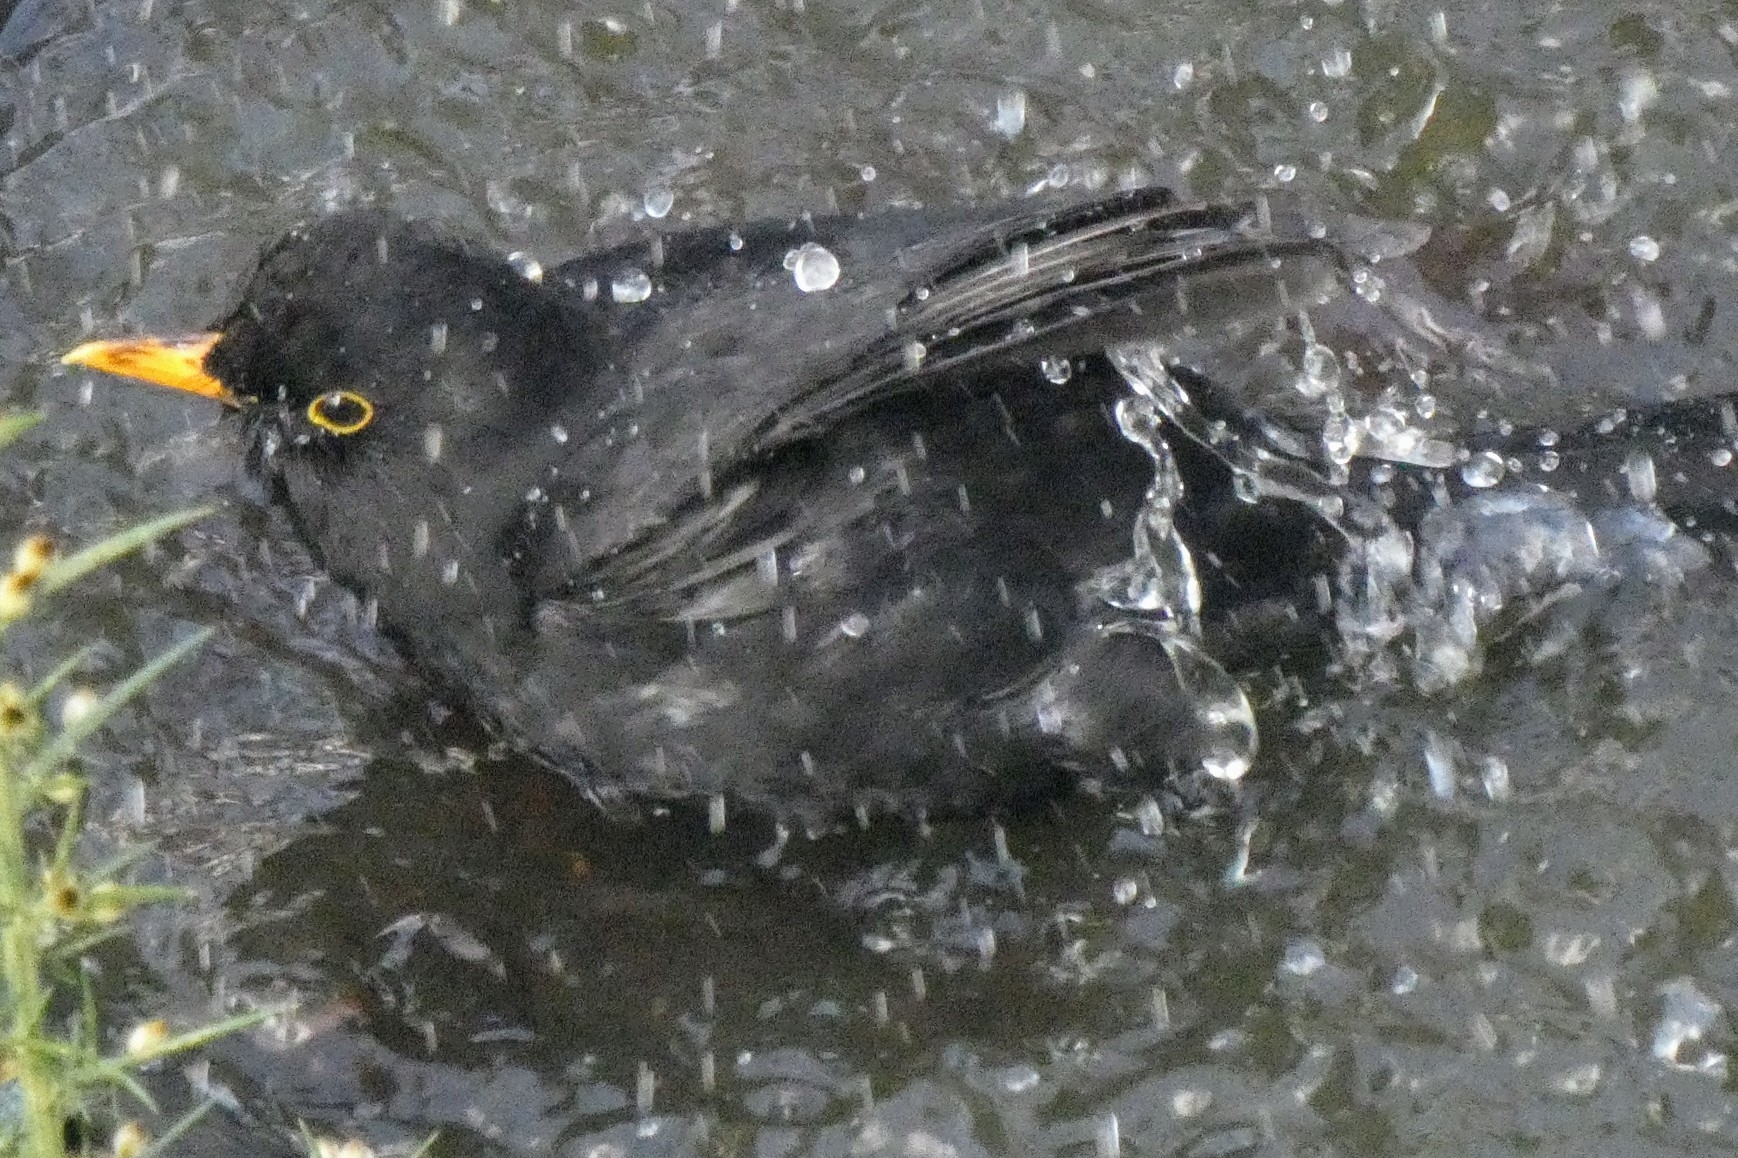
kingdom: Animalia
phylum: Chordata
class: Aves
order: Passeriformes
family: Turdidae
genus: Turdus
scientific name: Turdus merula
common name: Common blackbird
